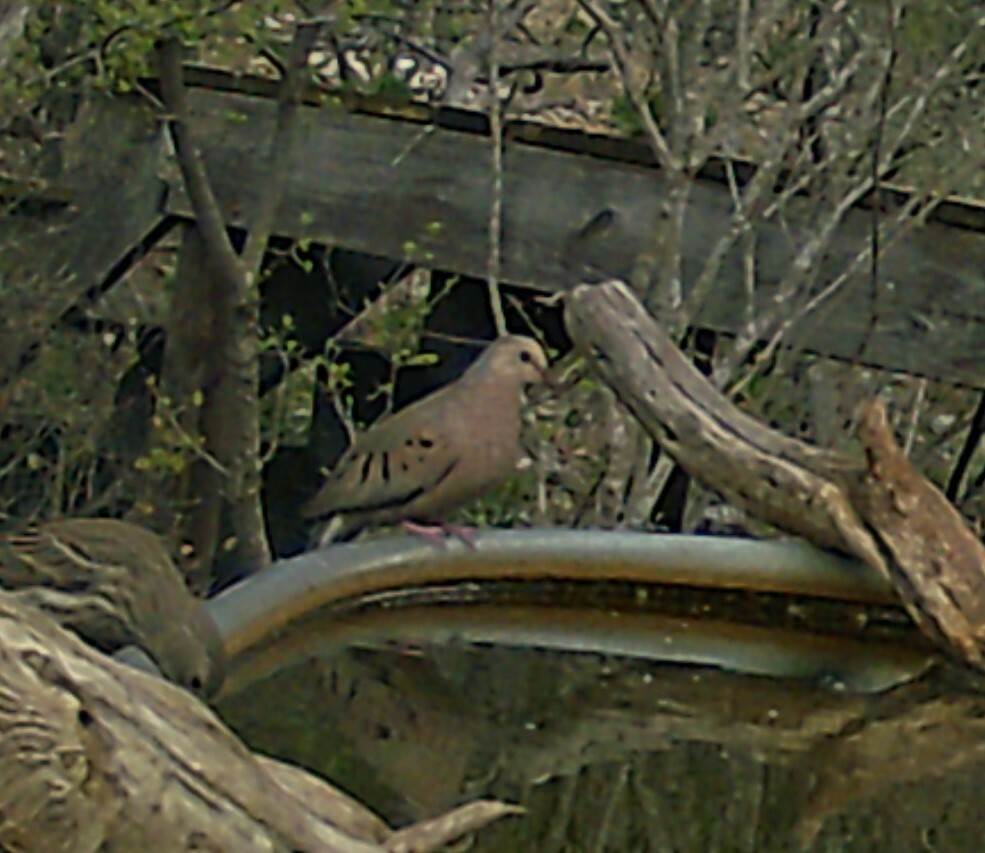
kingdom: Animalia
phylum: Chordata
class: Aves
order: Columbiformes
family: Columbidae
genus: Columbina
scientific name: Columbina passerina
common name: Common ground-dove
